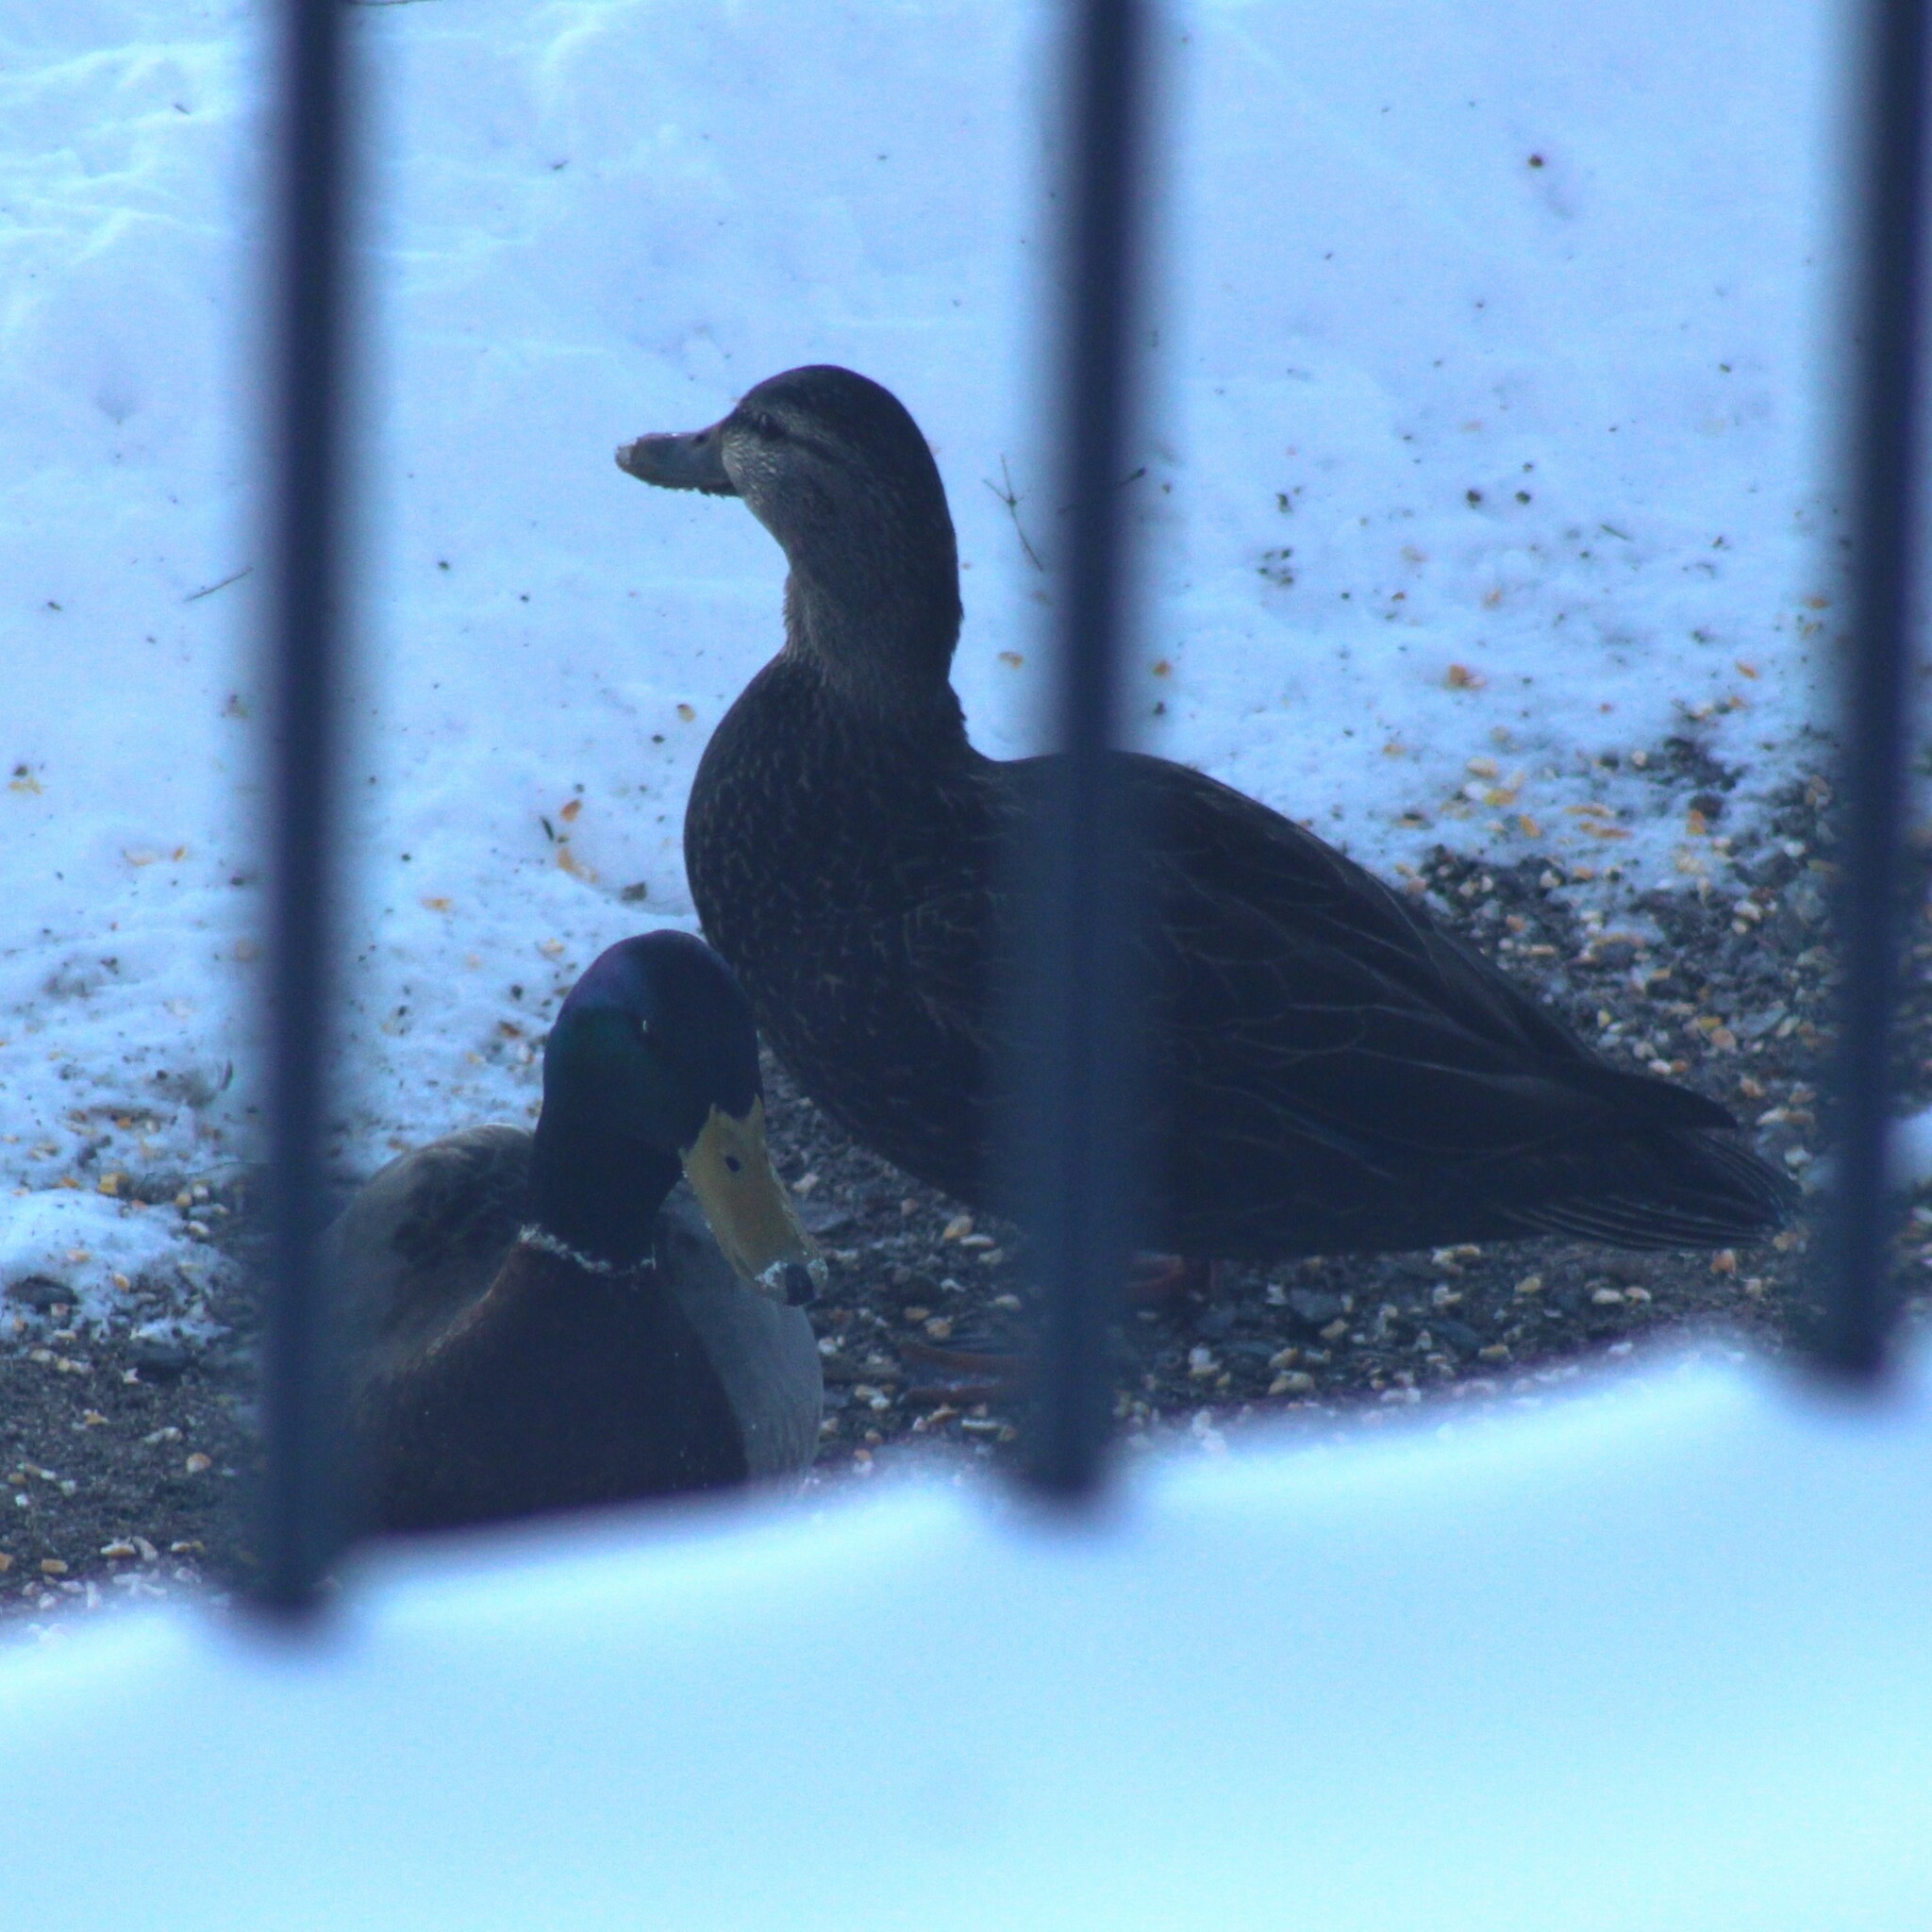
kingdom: Animalia
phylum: Chordata
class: Aves
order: Anseriformes
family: Anatidae
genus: Anas
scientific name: Anas platyrhynchos
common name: Mallard
